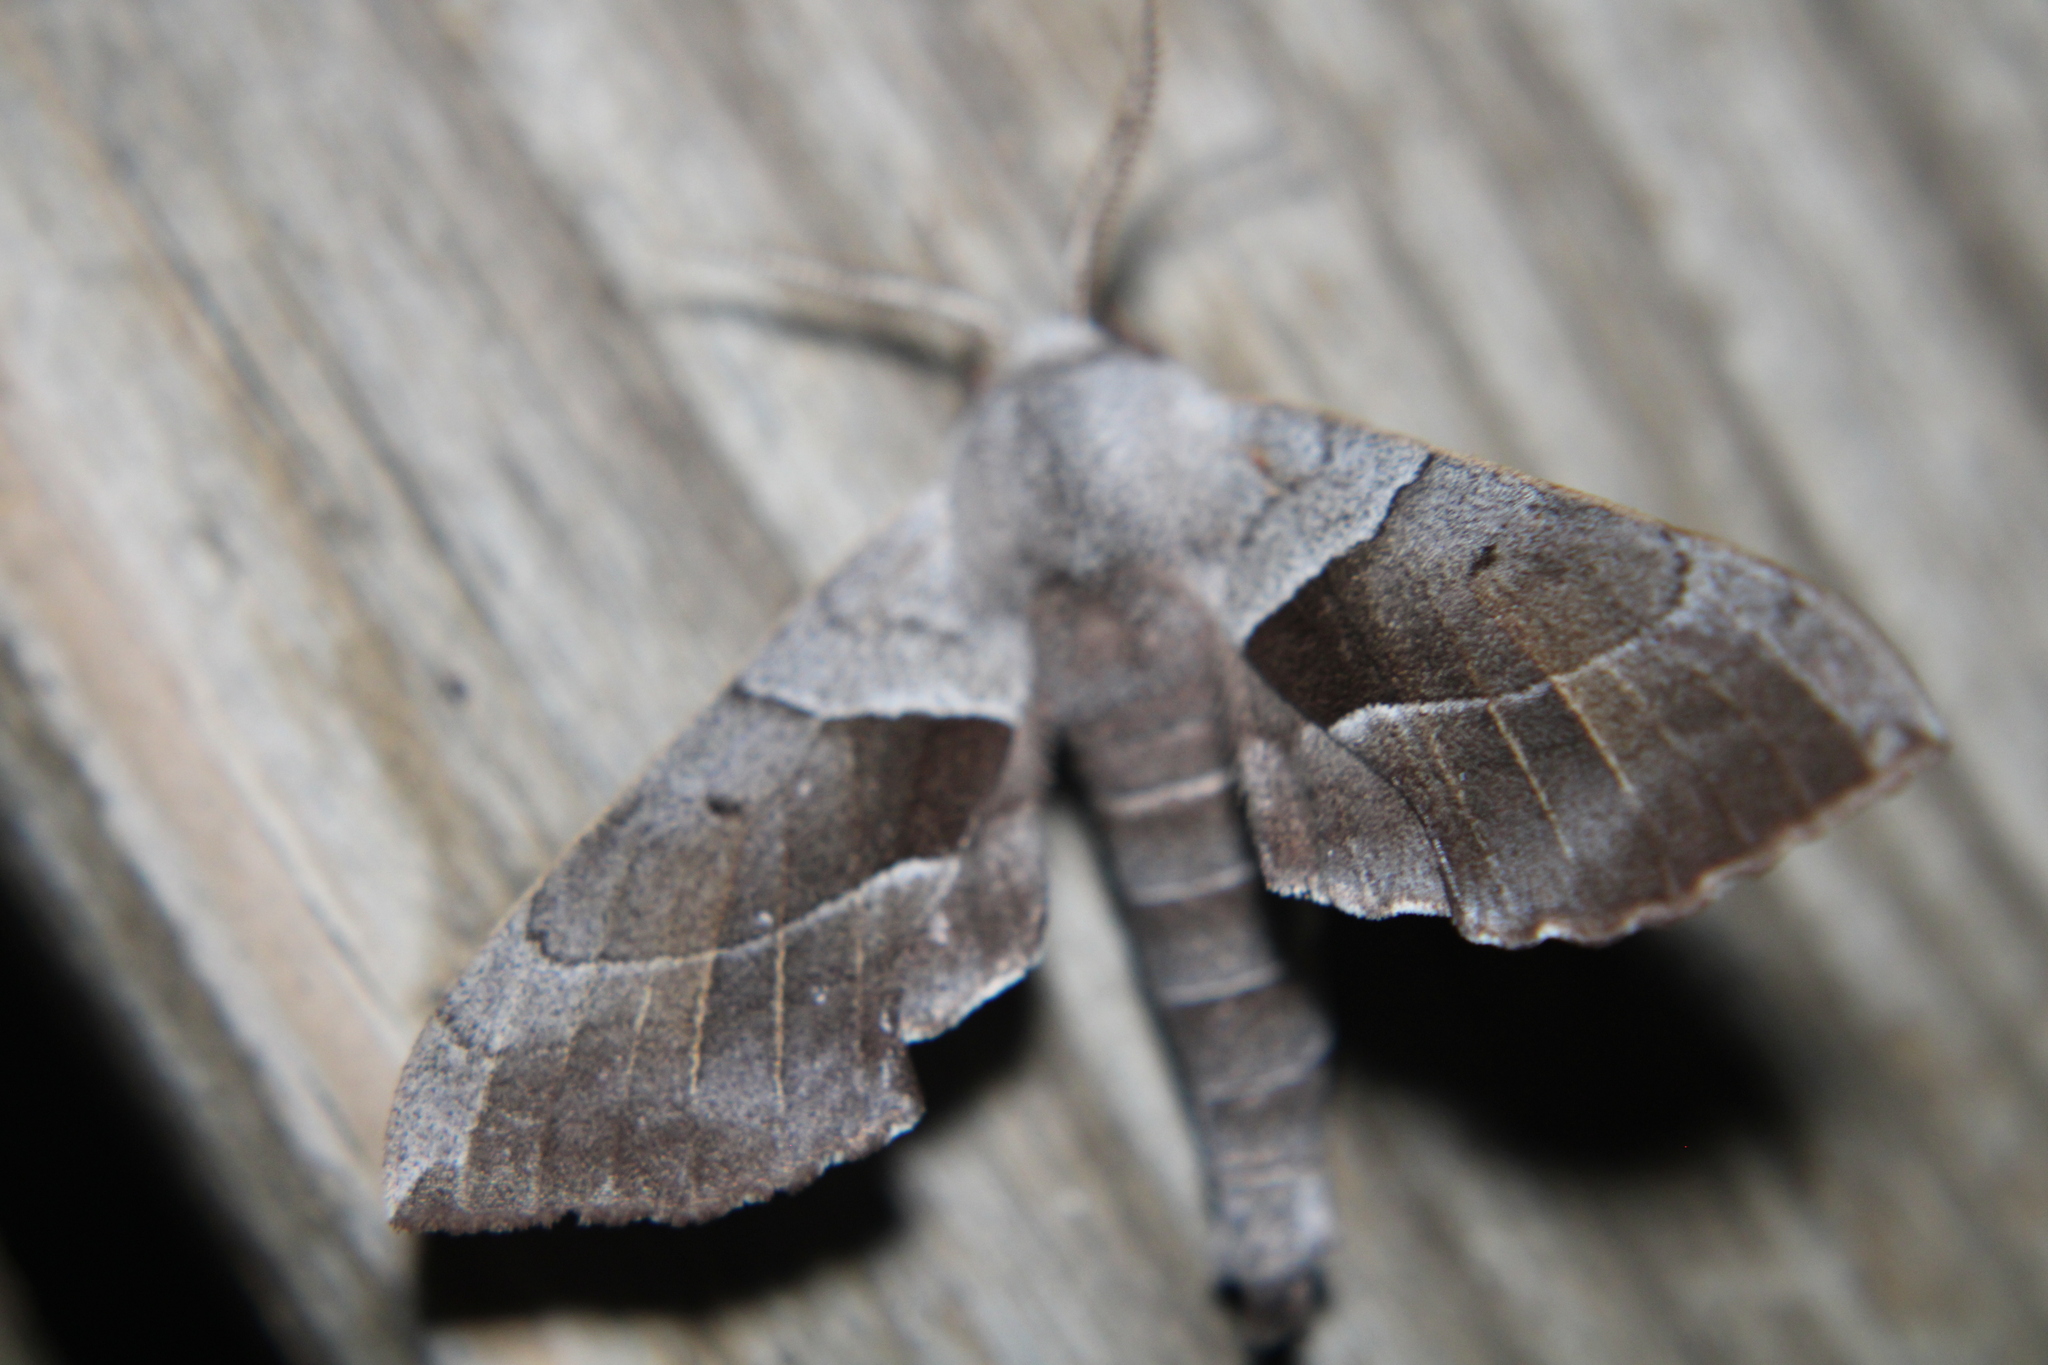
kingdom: Animalia
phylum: Arthropoda
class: Insecta
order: Lepidoptera
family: Sphingidae
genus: Amorpha
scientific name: Amorpha juglandis
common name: Walnut sphinx
